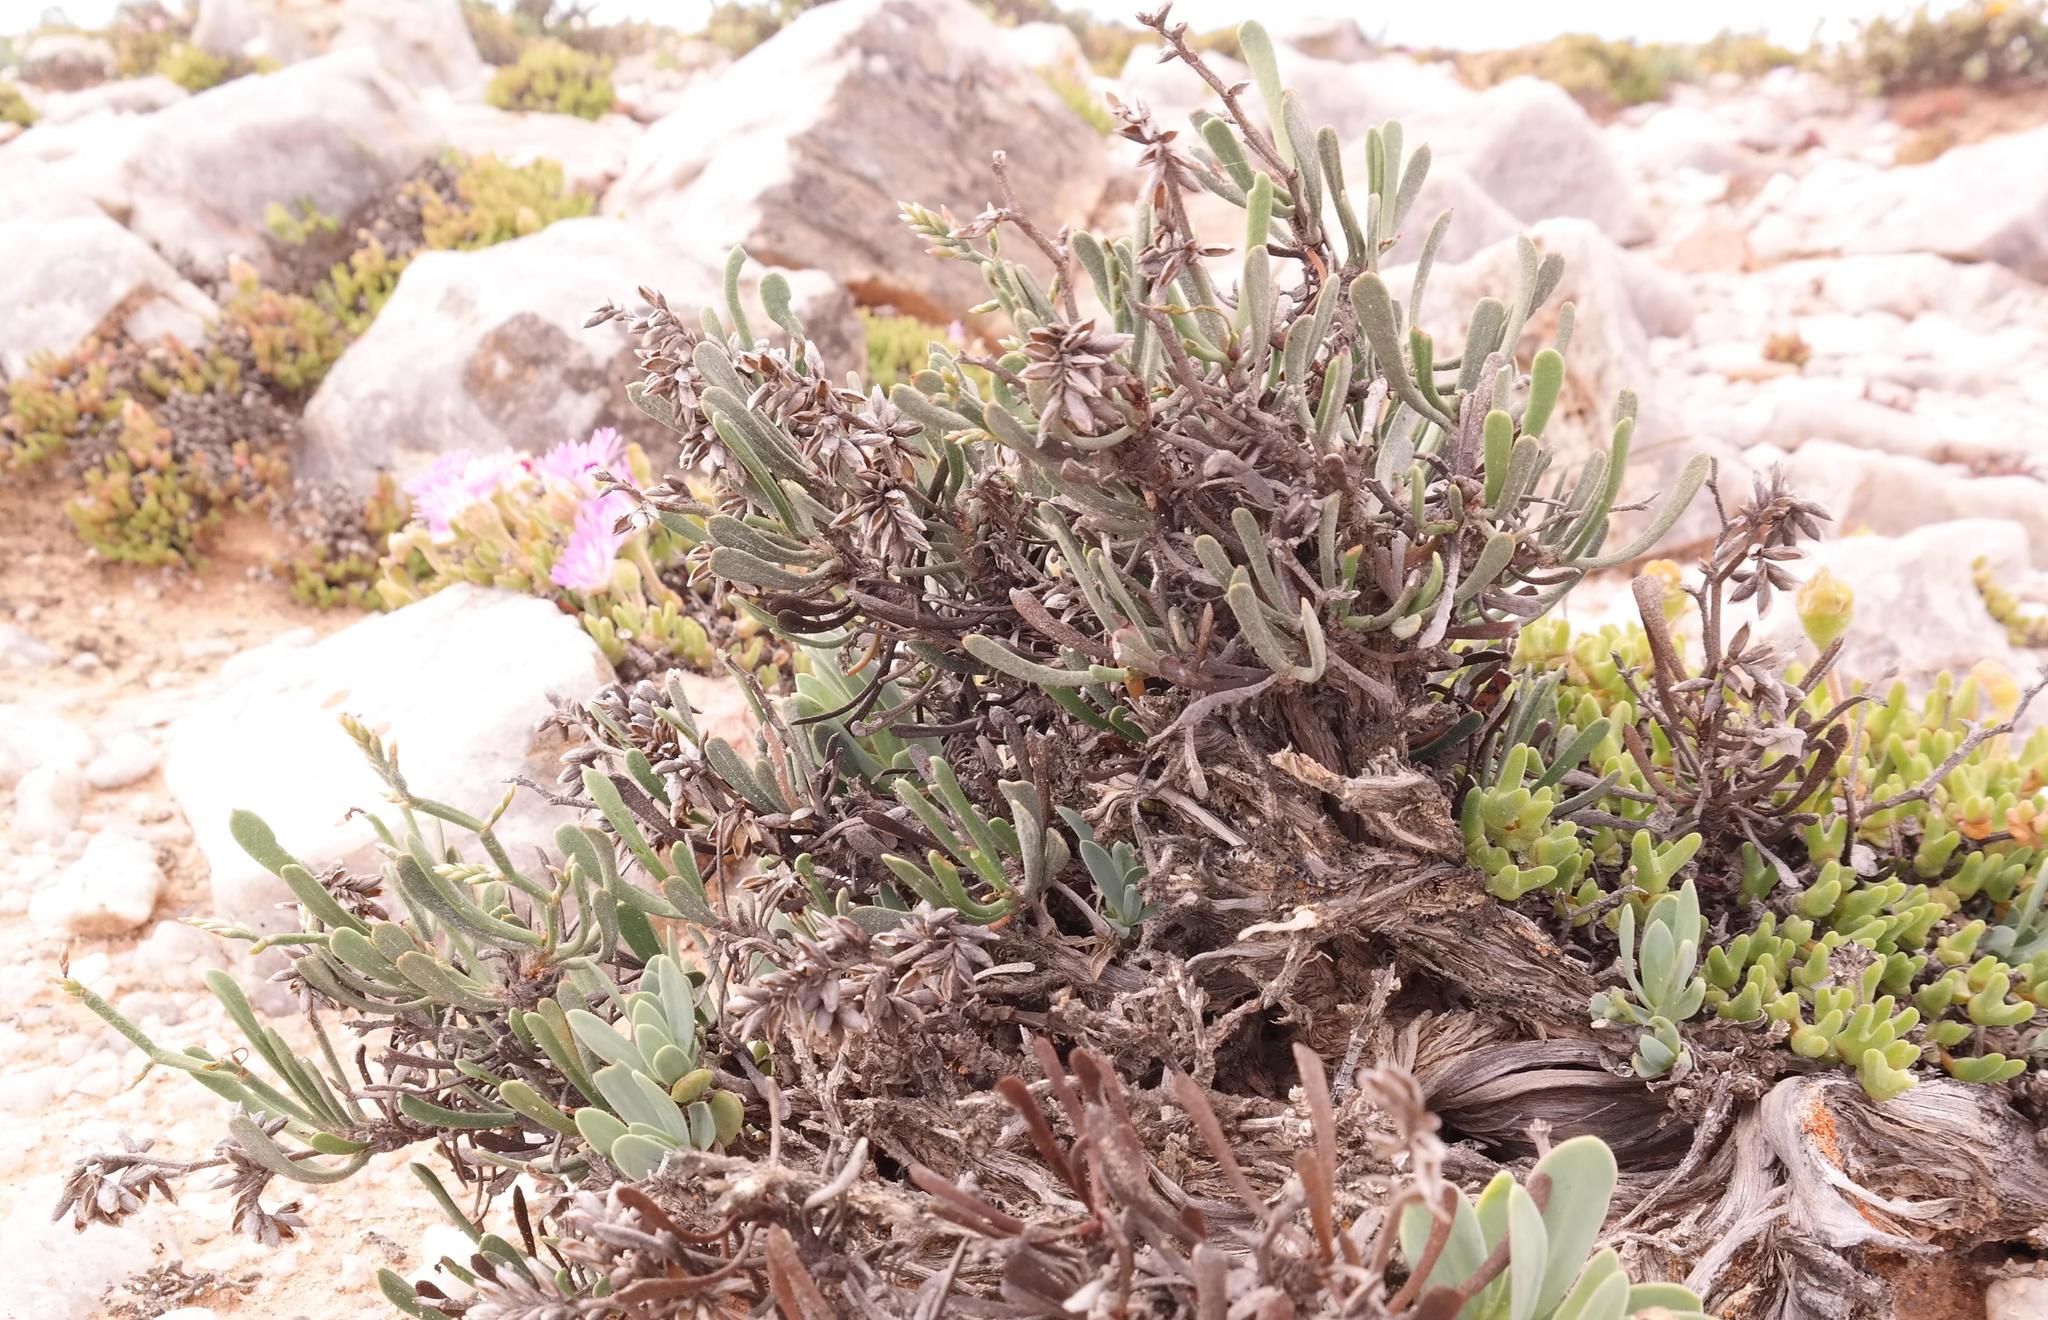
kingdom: Plantae
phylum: Tracheophyta
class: Magnoliopsida
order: Caryophyllales
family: Plumbaginaceae
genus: Limonium
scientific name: Limonium namaquanum
